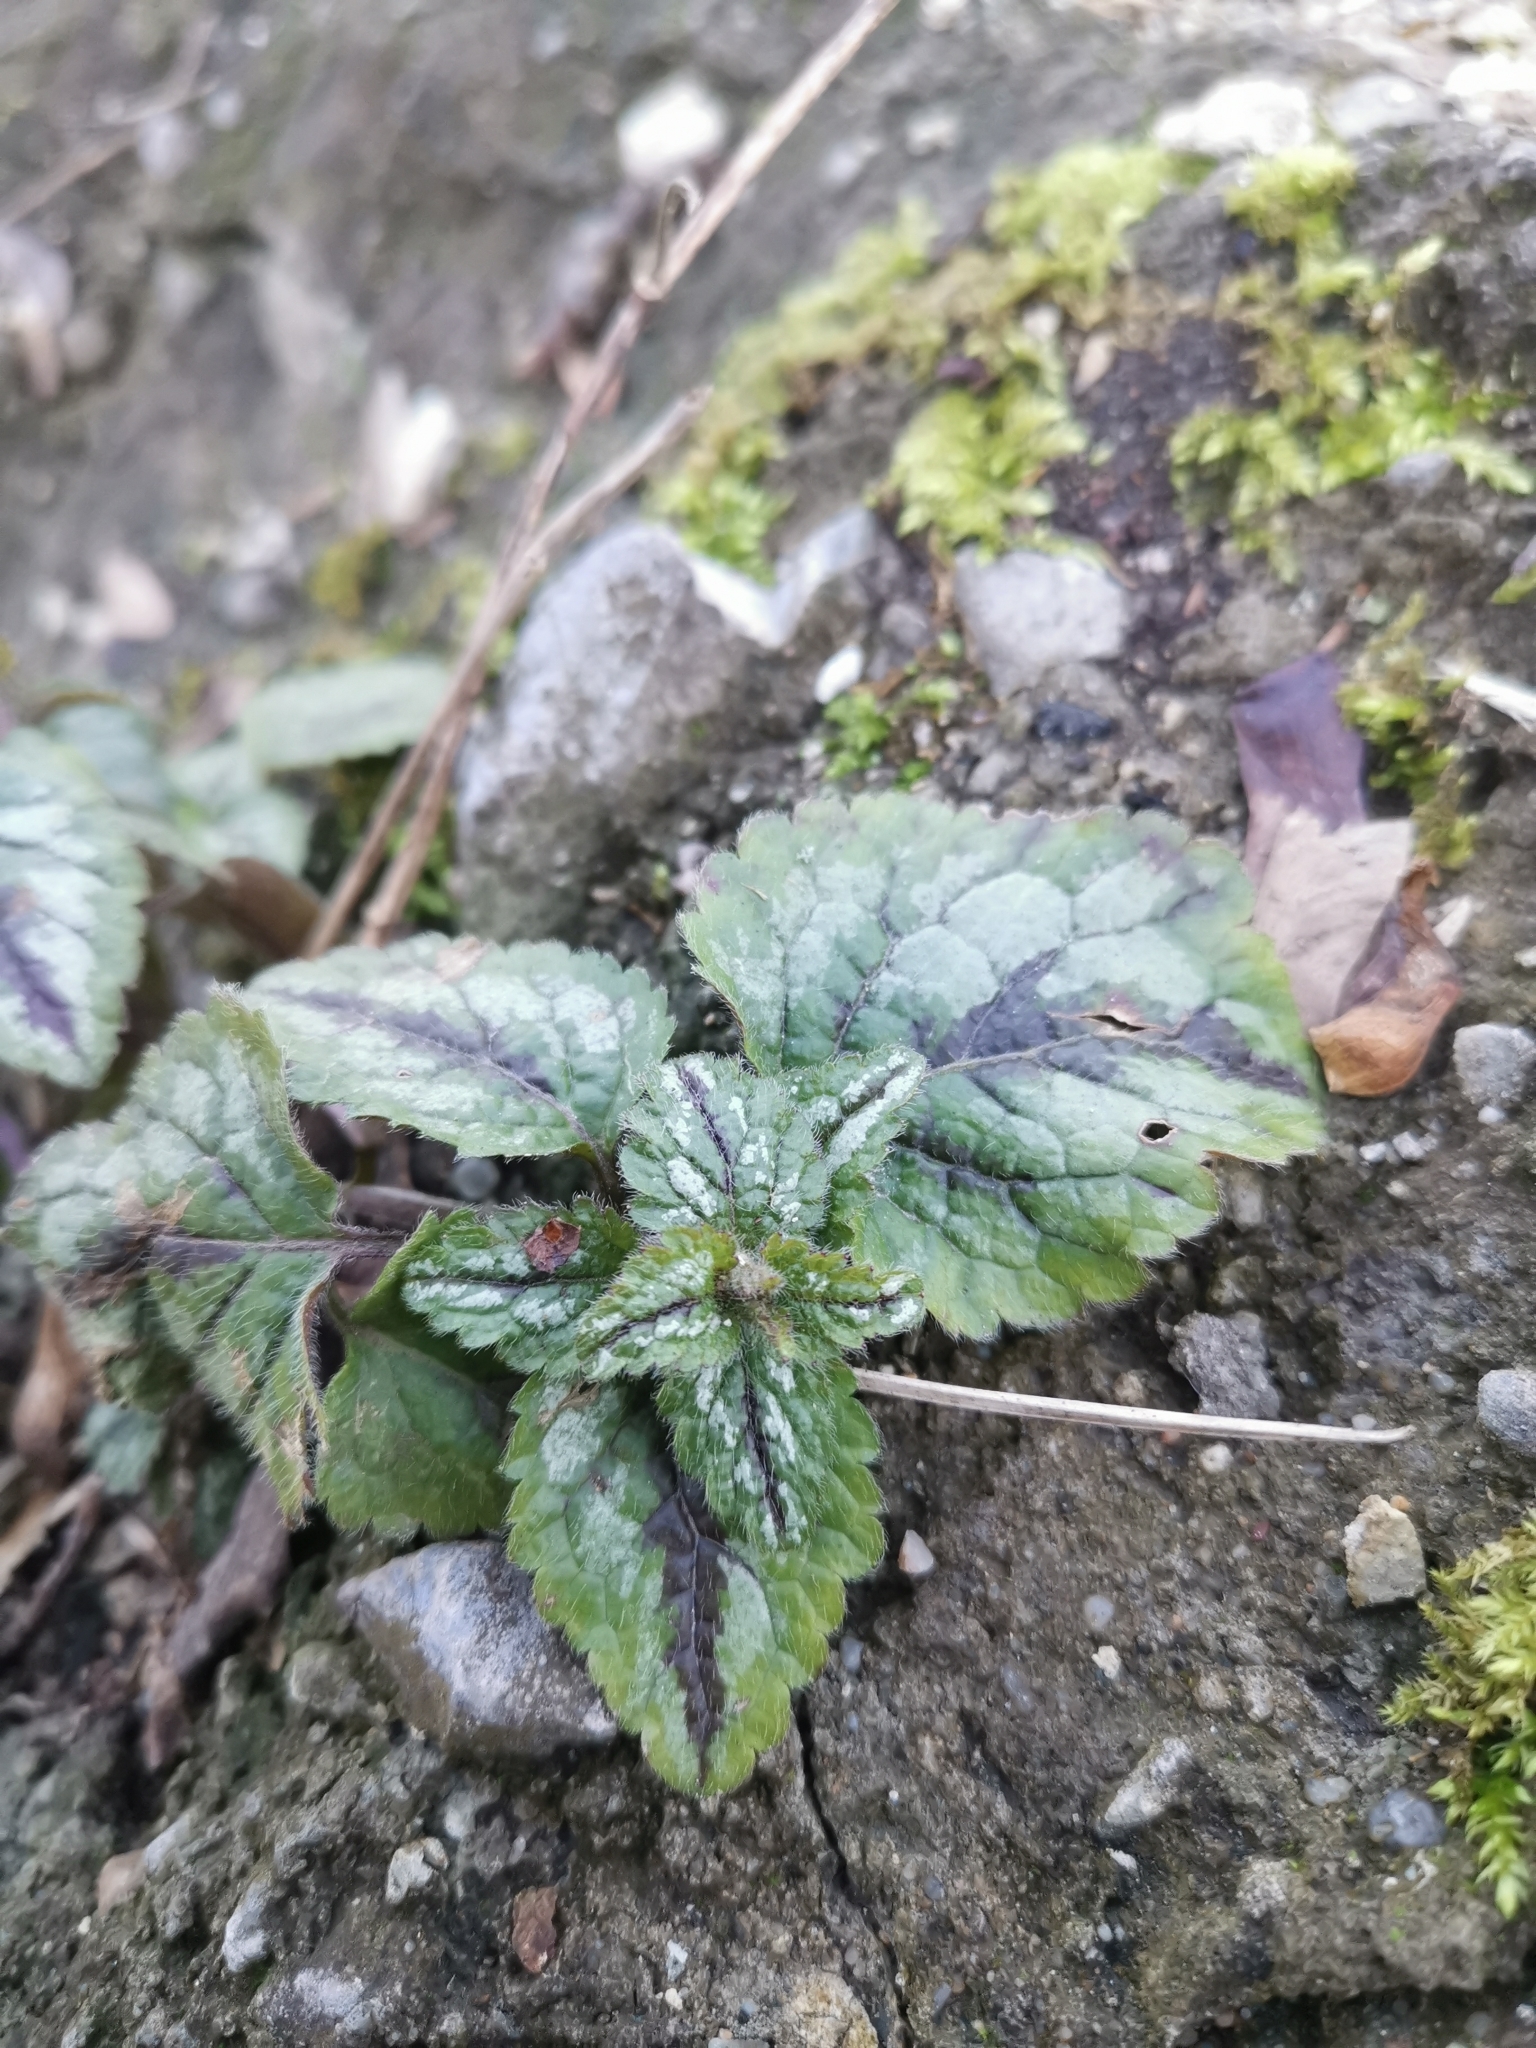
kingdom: Plantae
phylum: Tracheophyta
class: Magnoliopsida
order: Lamiales
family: Lamiaceae
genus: Lamium
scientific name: Lamium galeobdolon
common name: Yellow archangel
